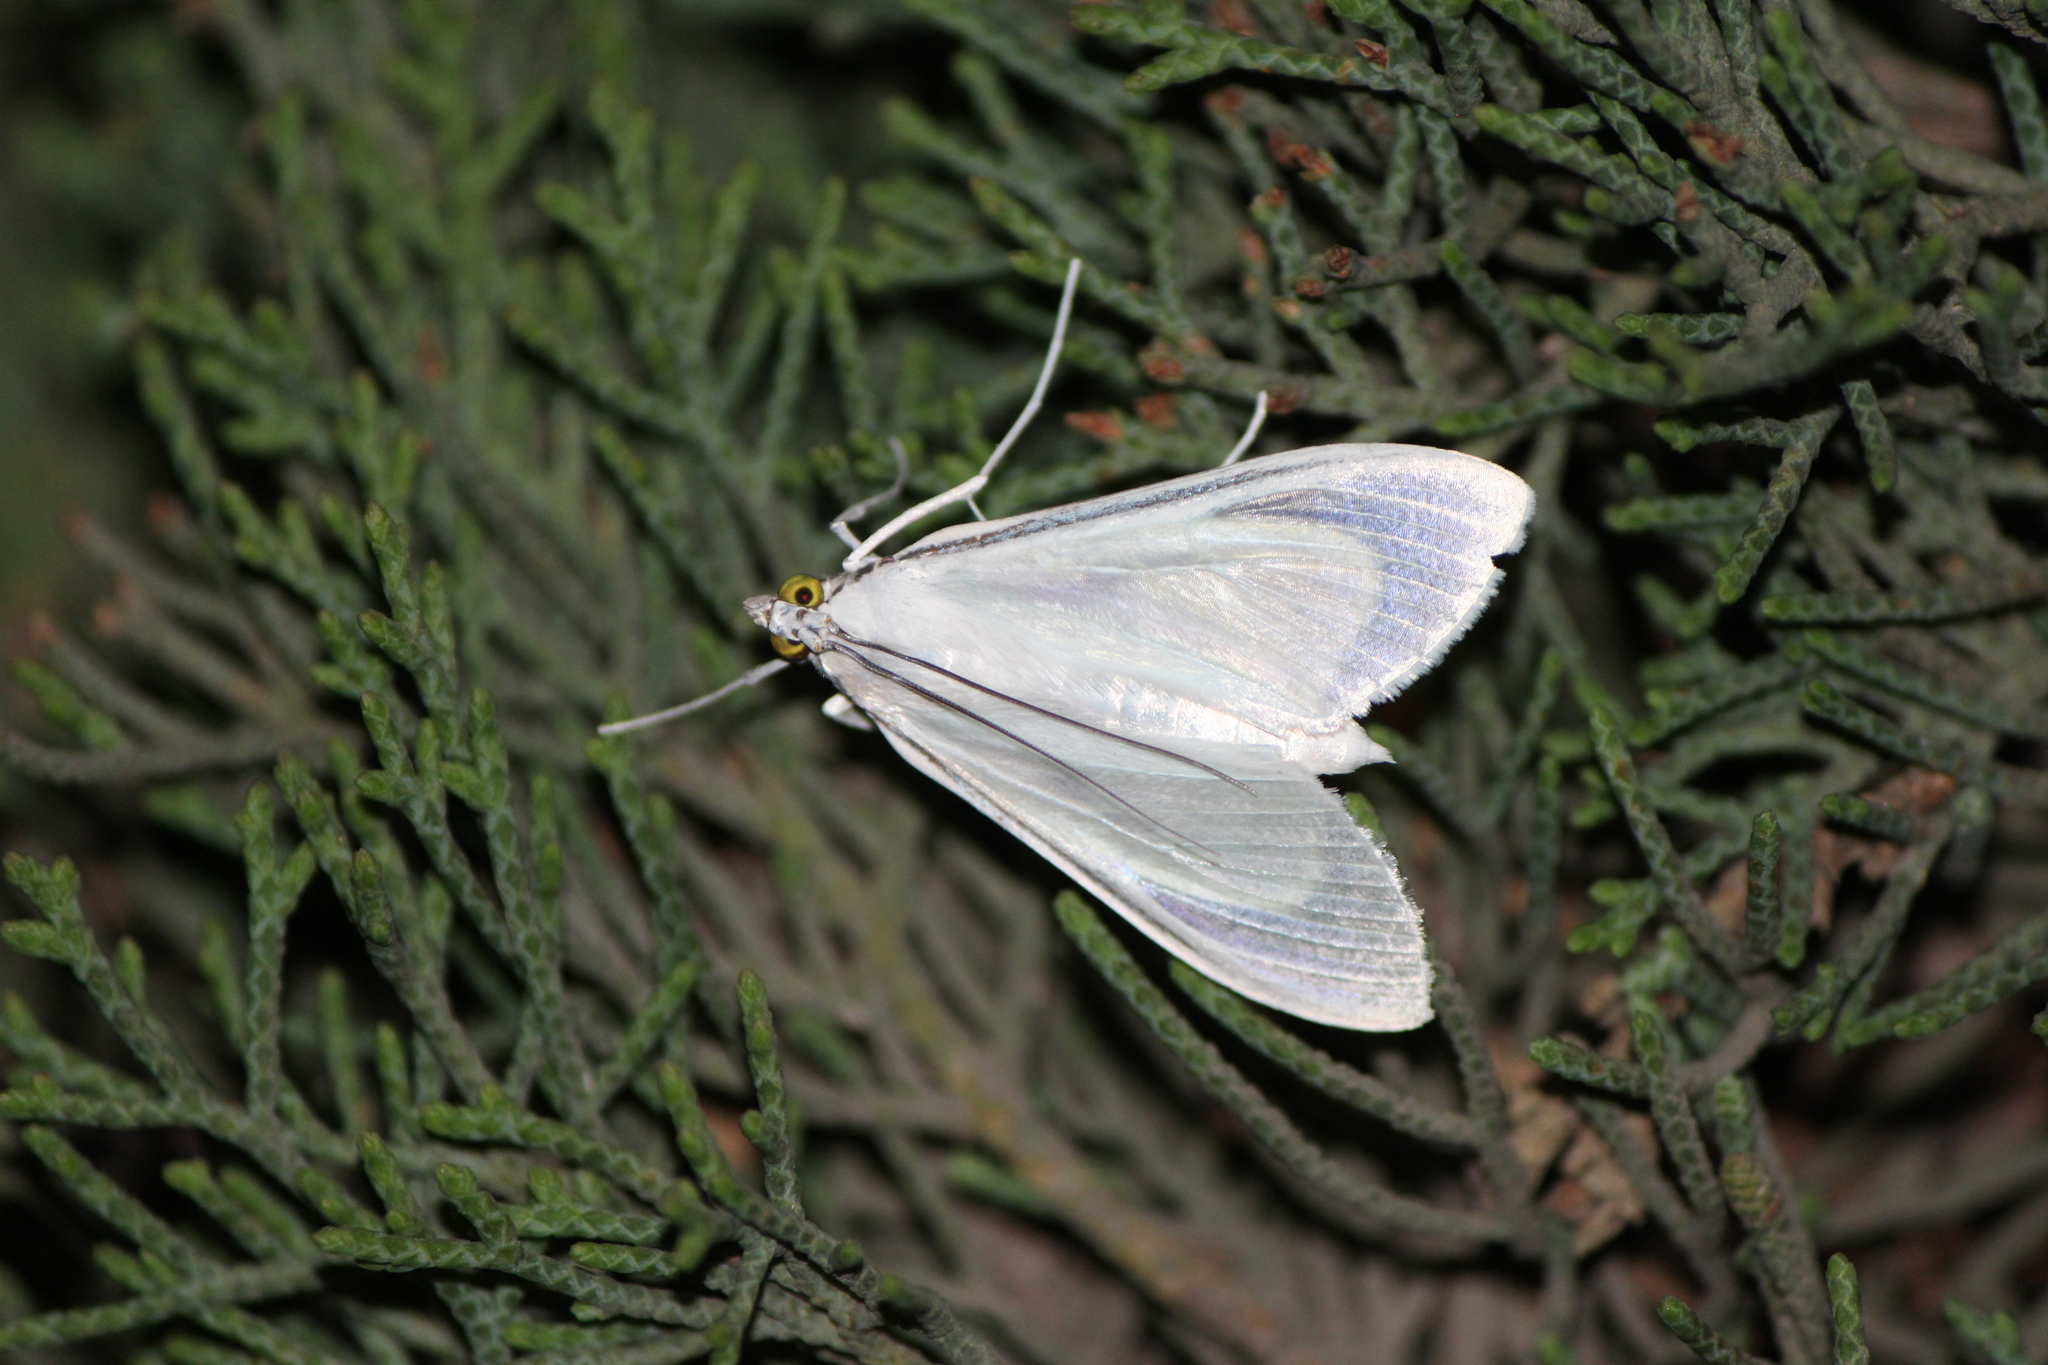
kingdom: Animalia
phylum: Arthropoda
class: Insecta
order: Lepidoptera
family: Crambidae
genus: Palpita
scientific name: Palpita flegia
